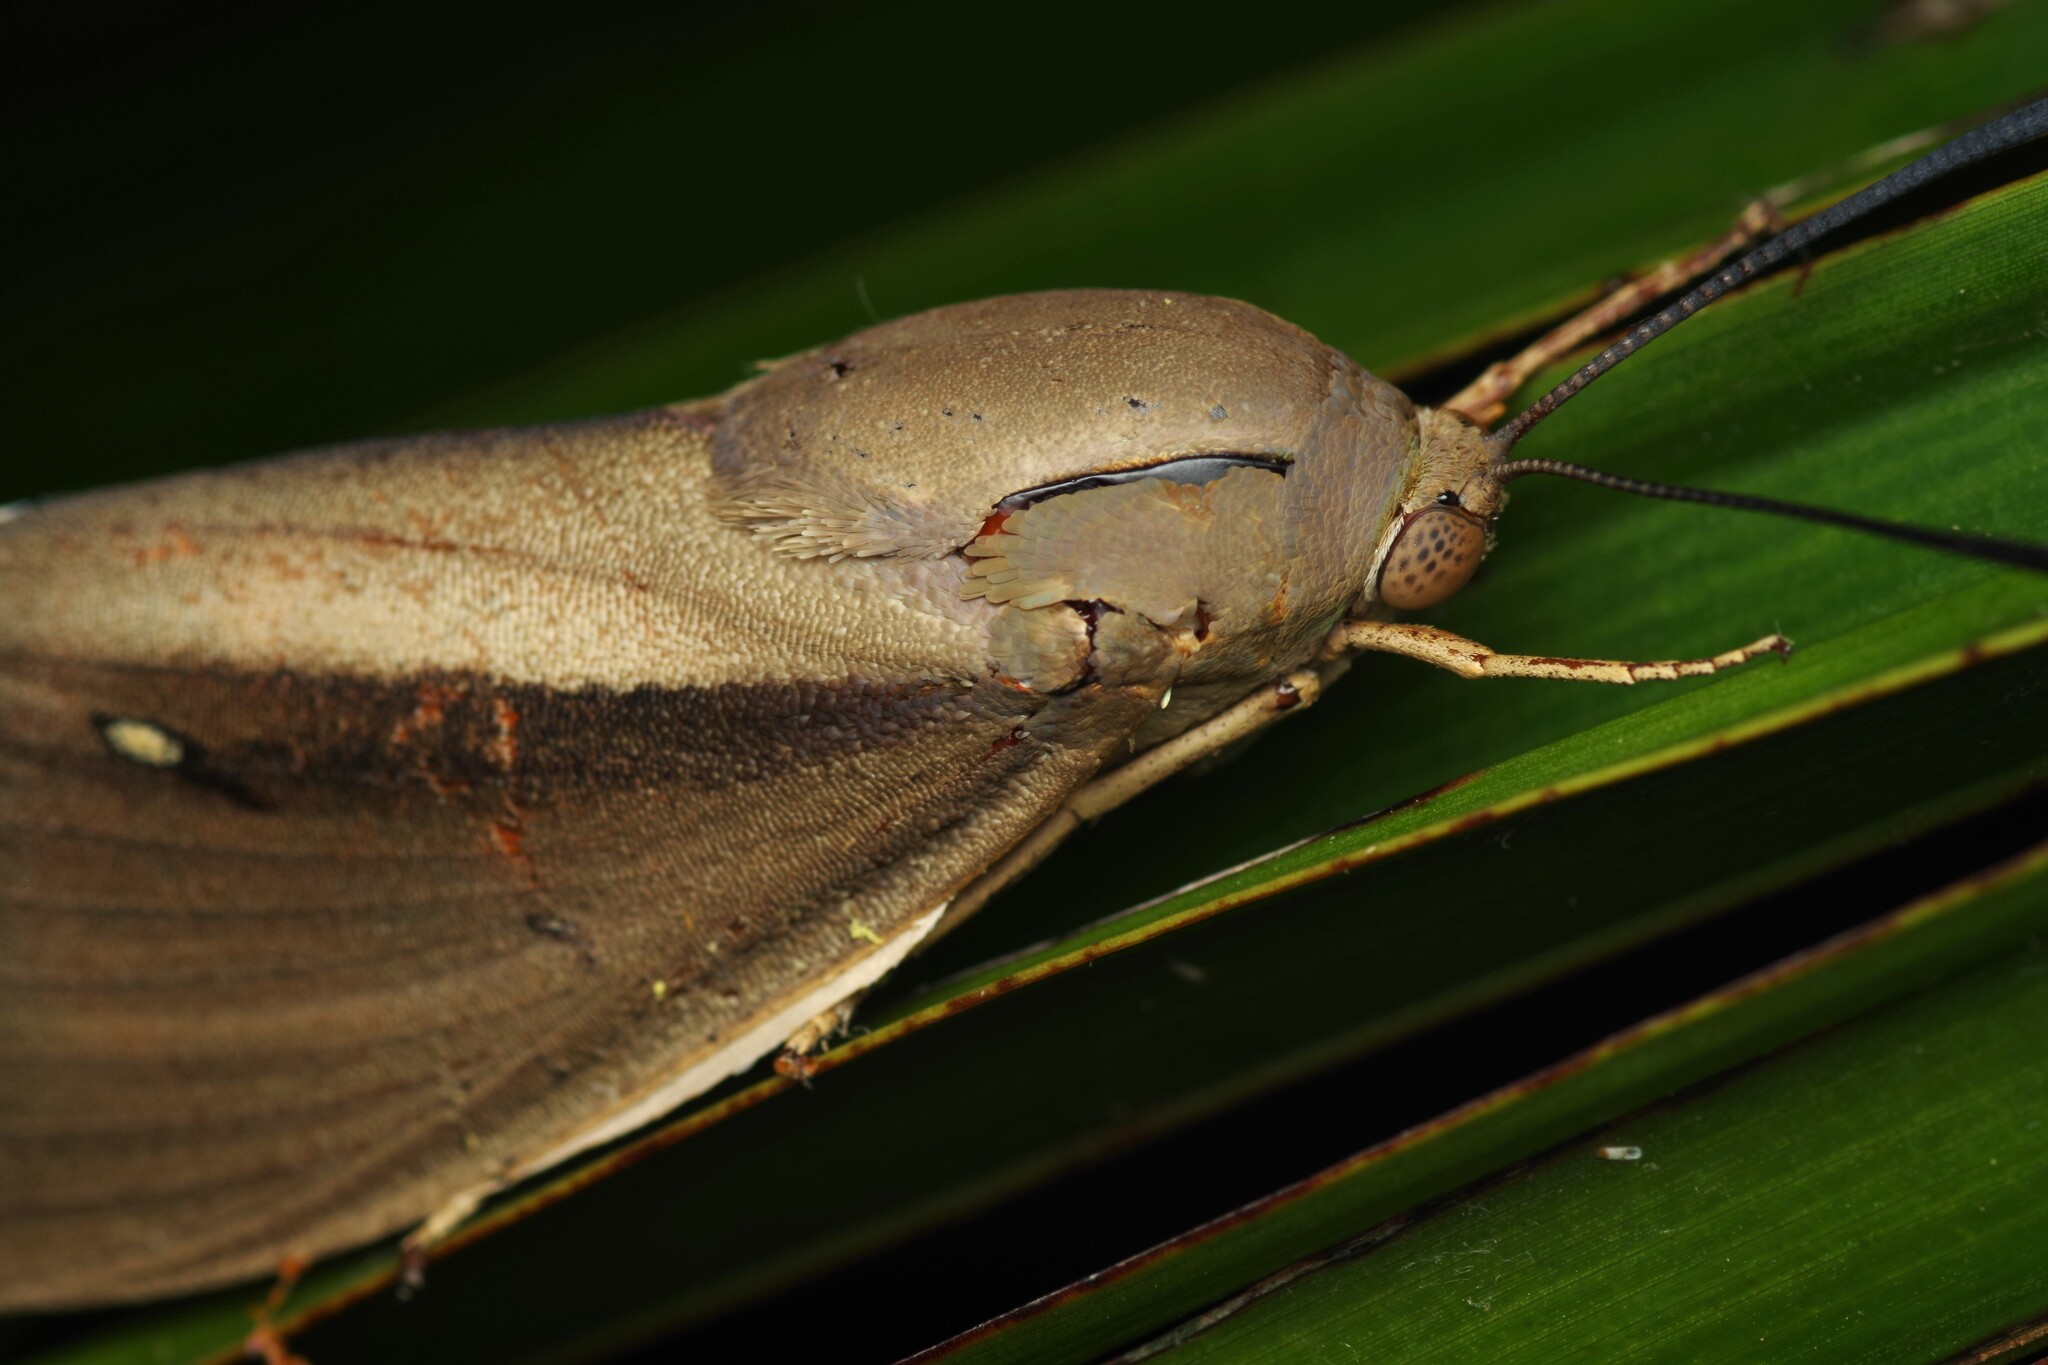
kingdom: Animalia
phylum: Arthropoda
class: Insecta
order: Lepidoptera
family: Castniidae
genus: Paysandisia
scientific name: Paysandisia archon
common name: Palm moth
